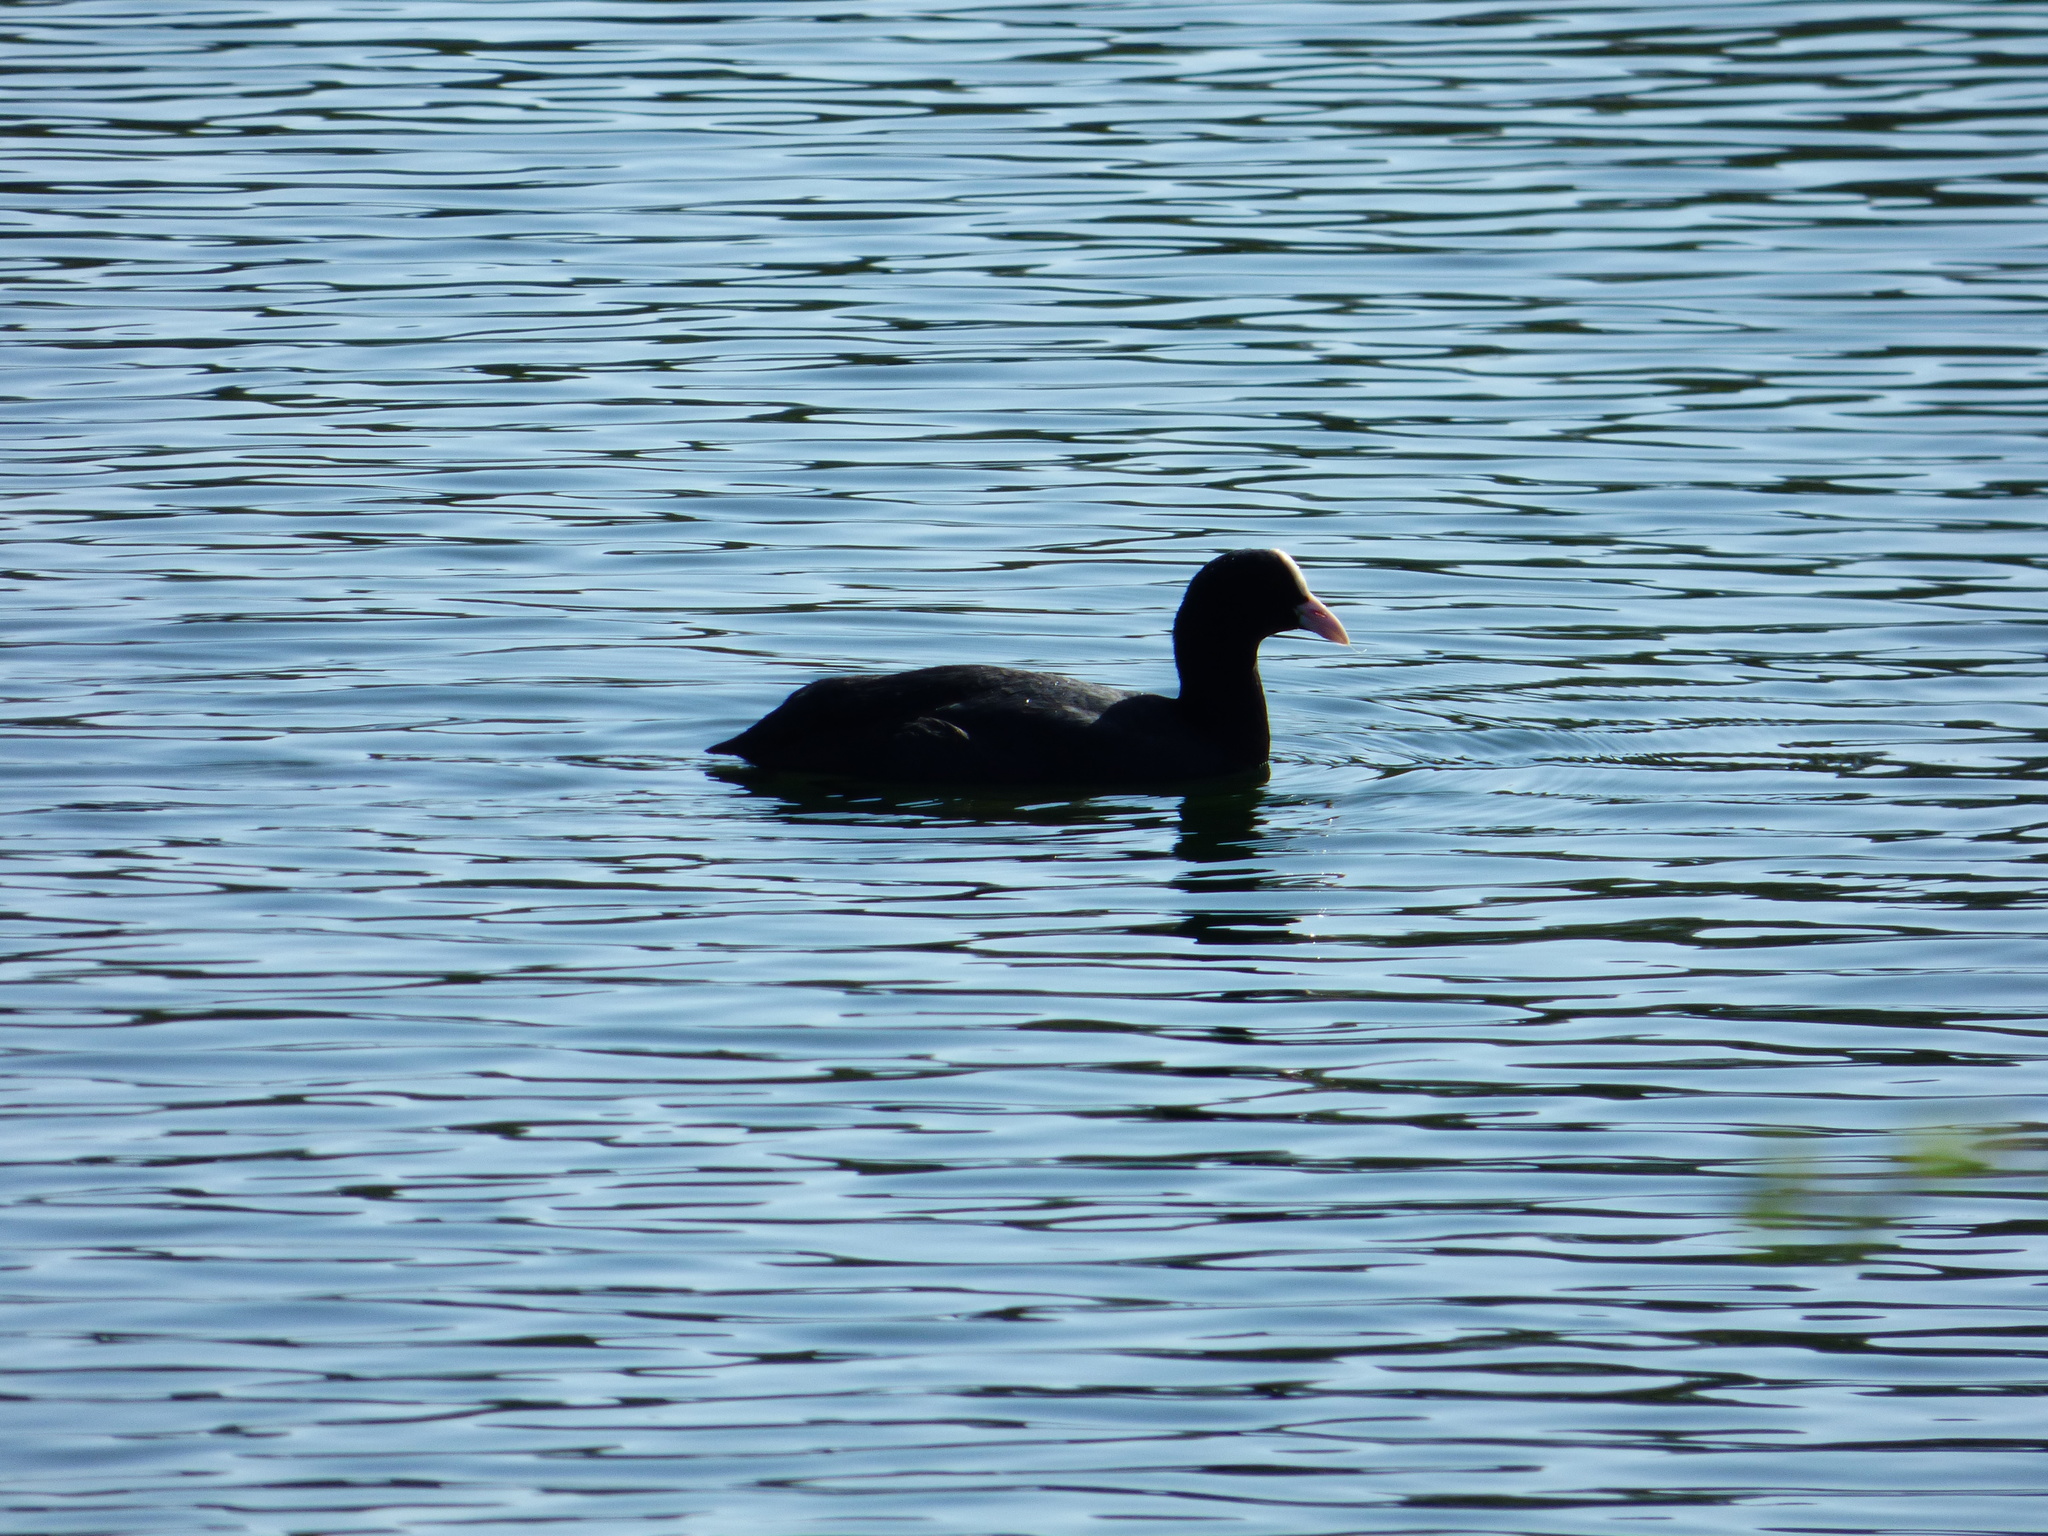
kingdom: Animalia
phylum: Chordata
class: Aves
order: Gruiformes
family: Rallidae
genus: Fulica
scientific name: Fulica atra
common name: Eurasian coot
